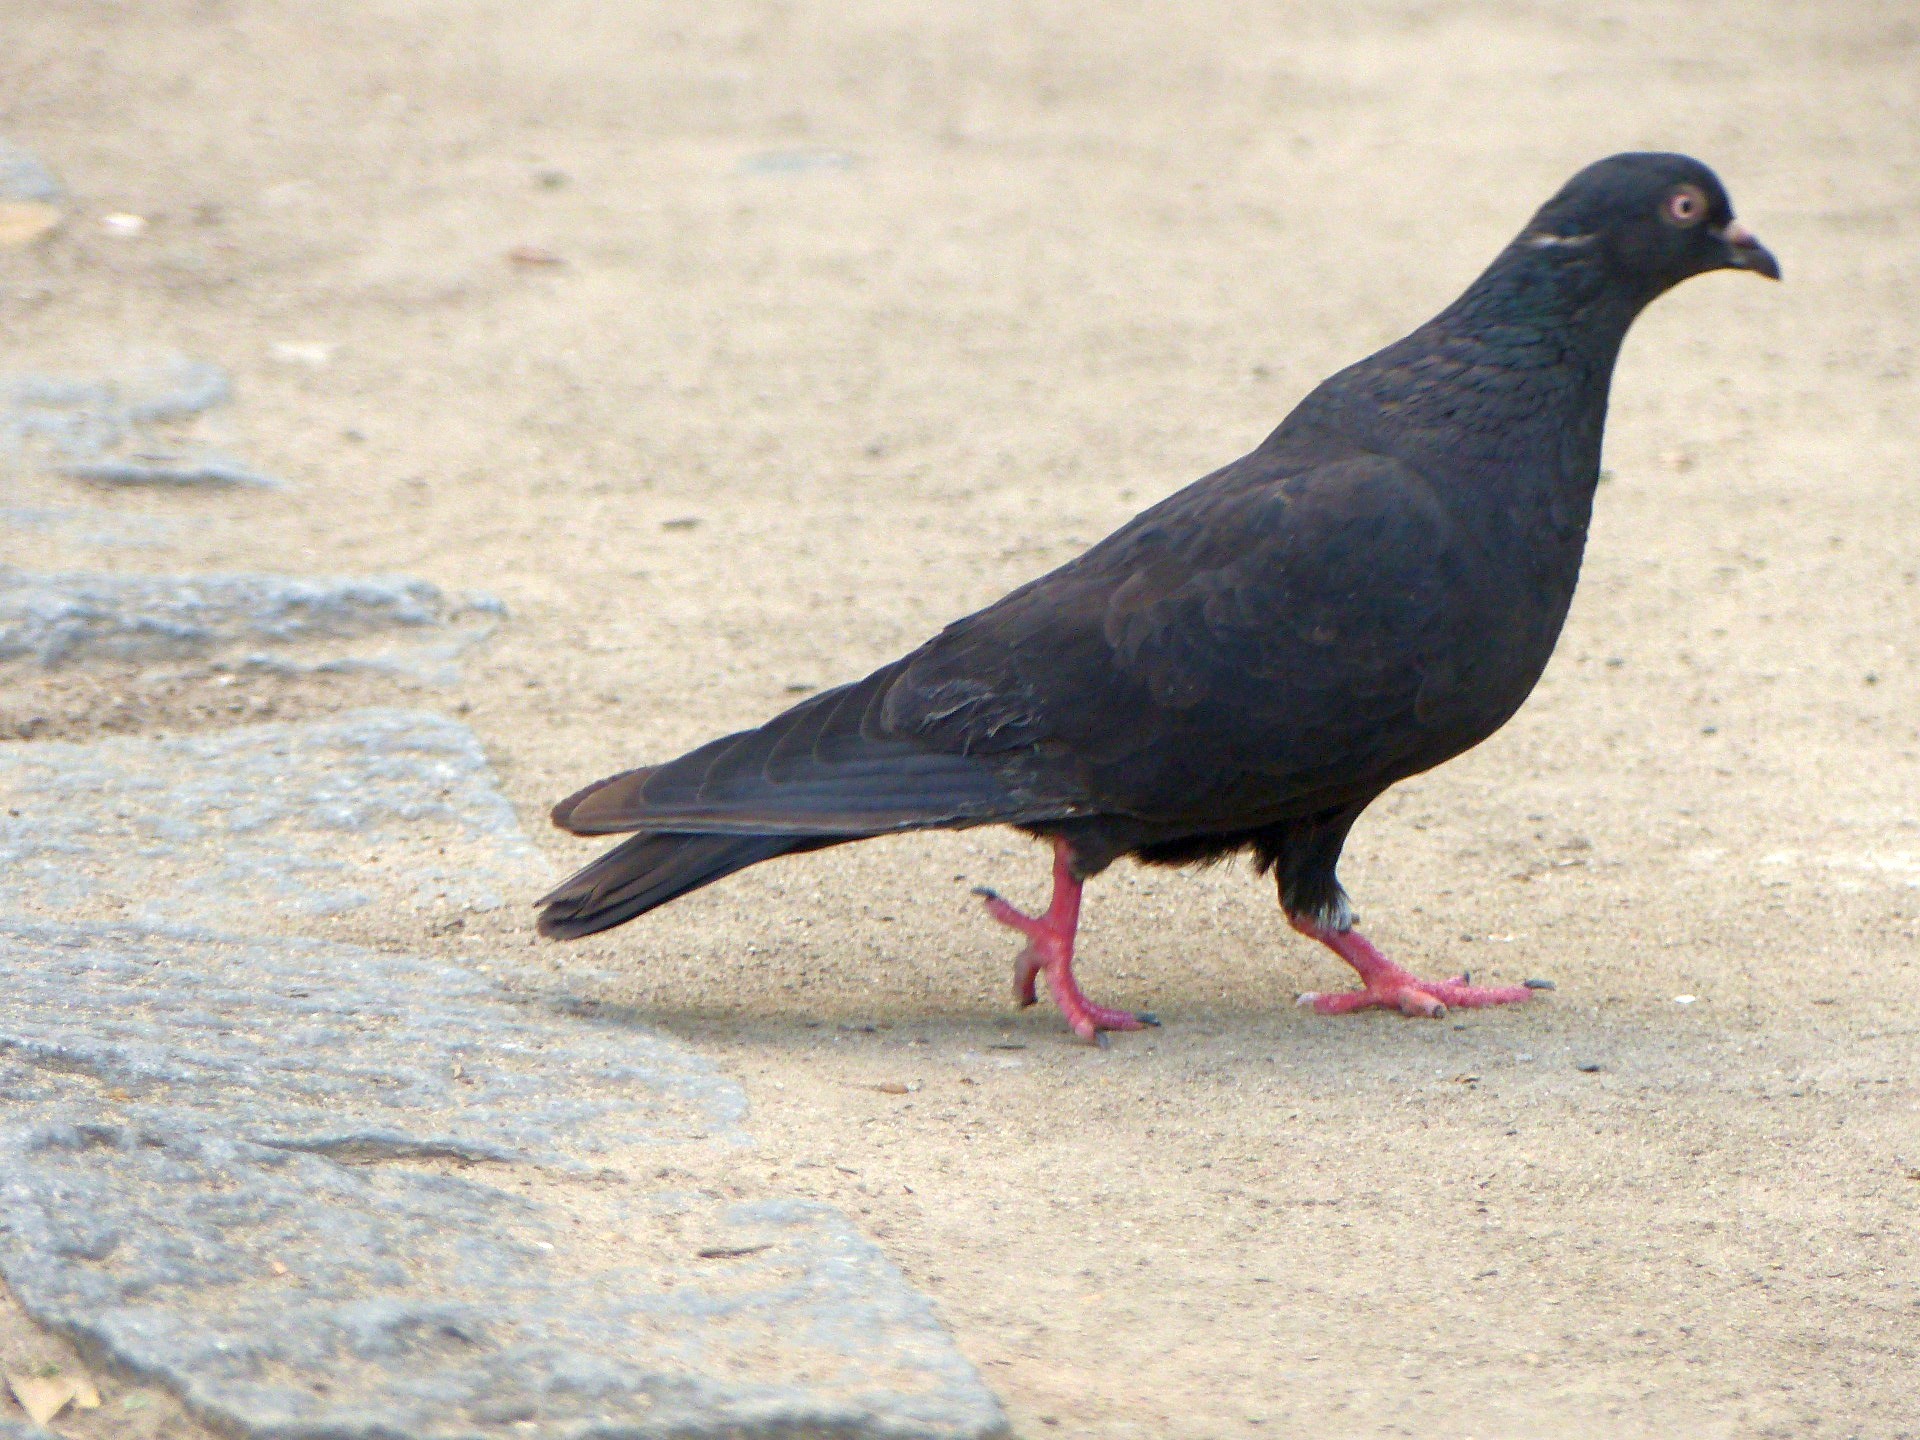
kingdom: Animalia
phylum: Chordata
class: Aves
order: Columbiformes
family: Columbidae
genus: Columba
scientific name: Columba livia
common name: Rock pigeon
